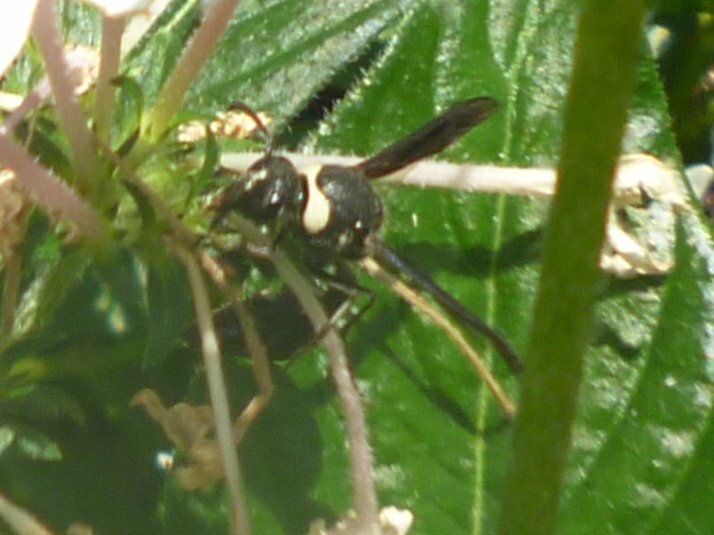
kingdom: Animalia
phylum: Arthropoda
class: Insecta
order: Hymenoptera
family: Vespidae
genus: Eumenes
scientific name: Eumenes fraternus
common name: Fraternal potter wasp
